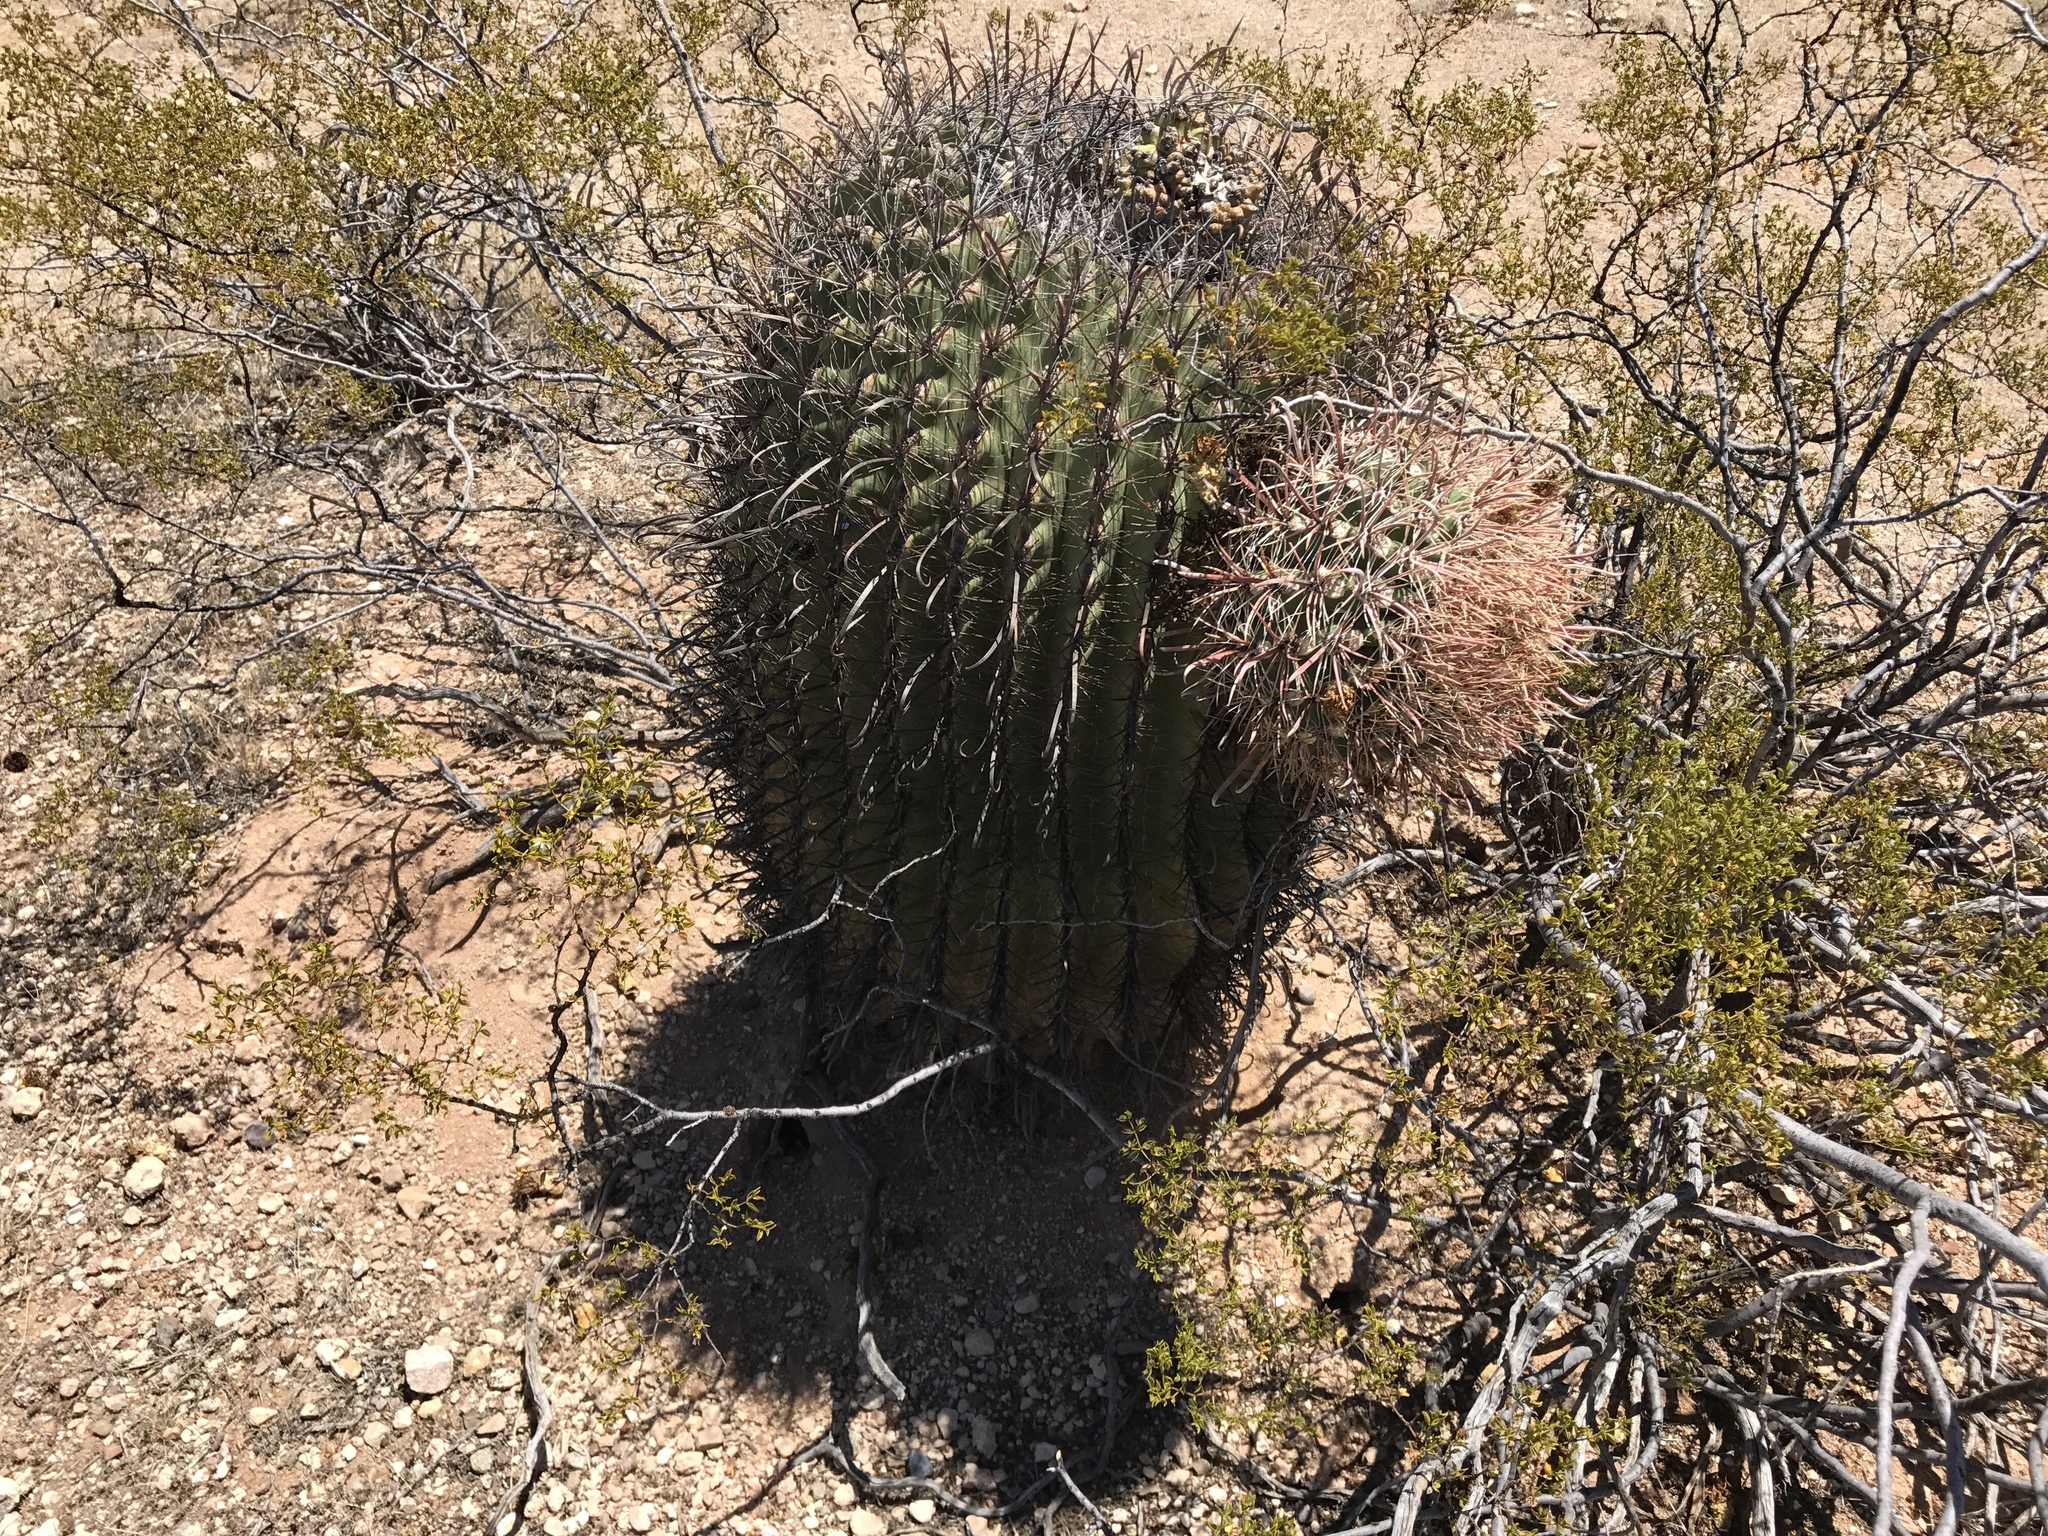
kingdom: Plantae
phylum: Tracheophyta
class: Magnoliopsida
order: Caryophyllales
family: Cactaceae
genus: Ferocactus
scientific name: Ferocactus wislizeni
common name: Candy barrel cactus
